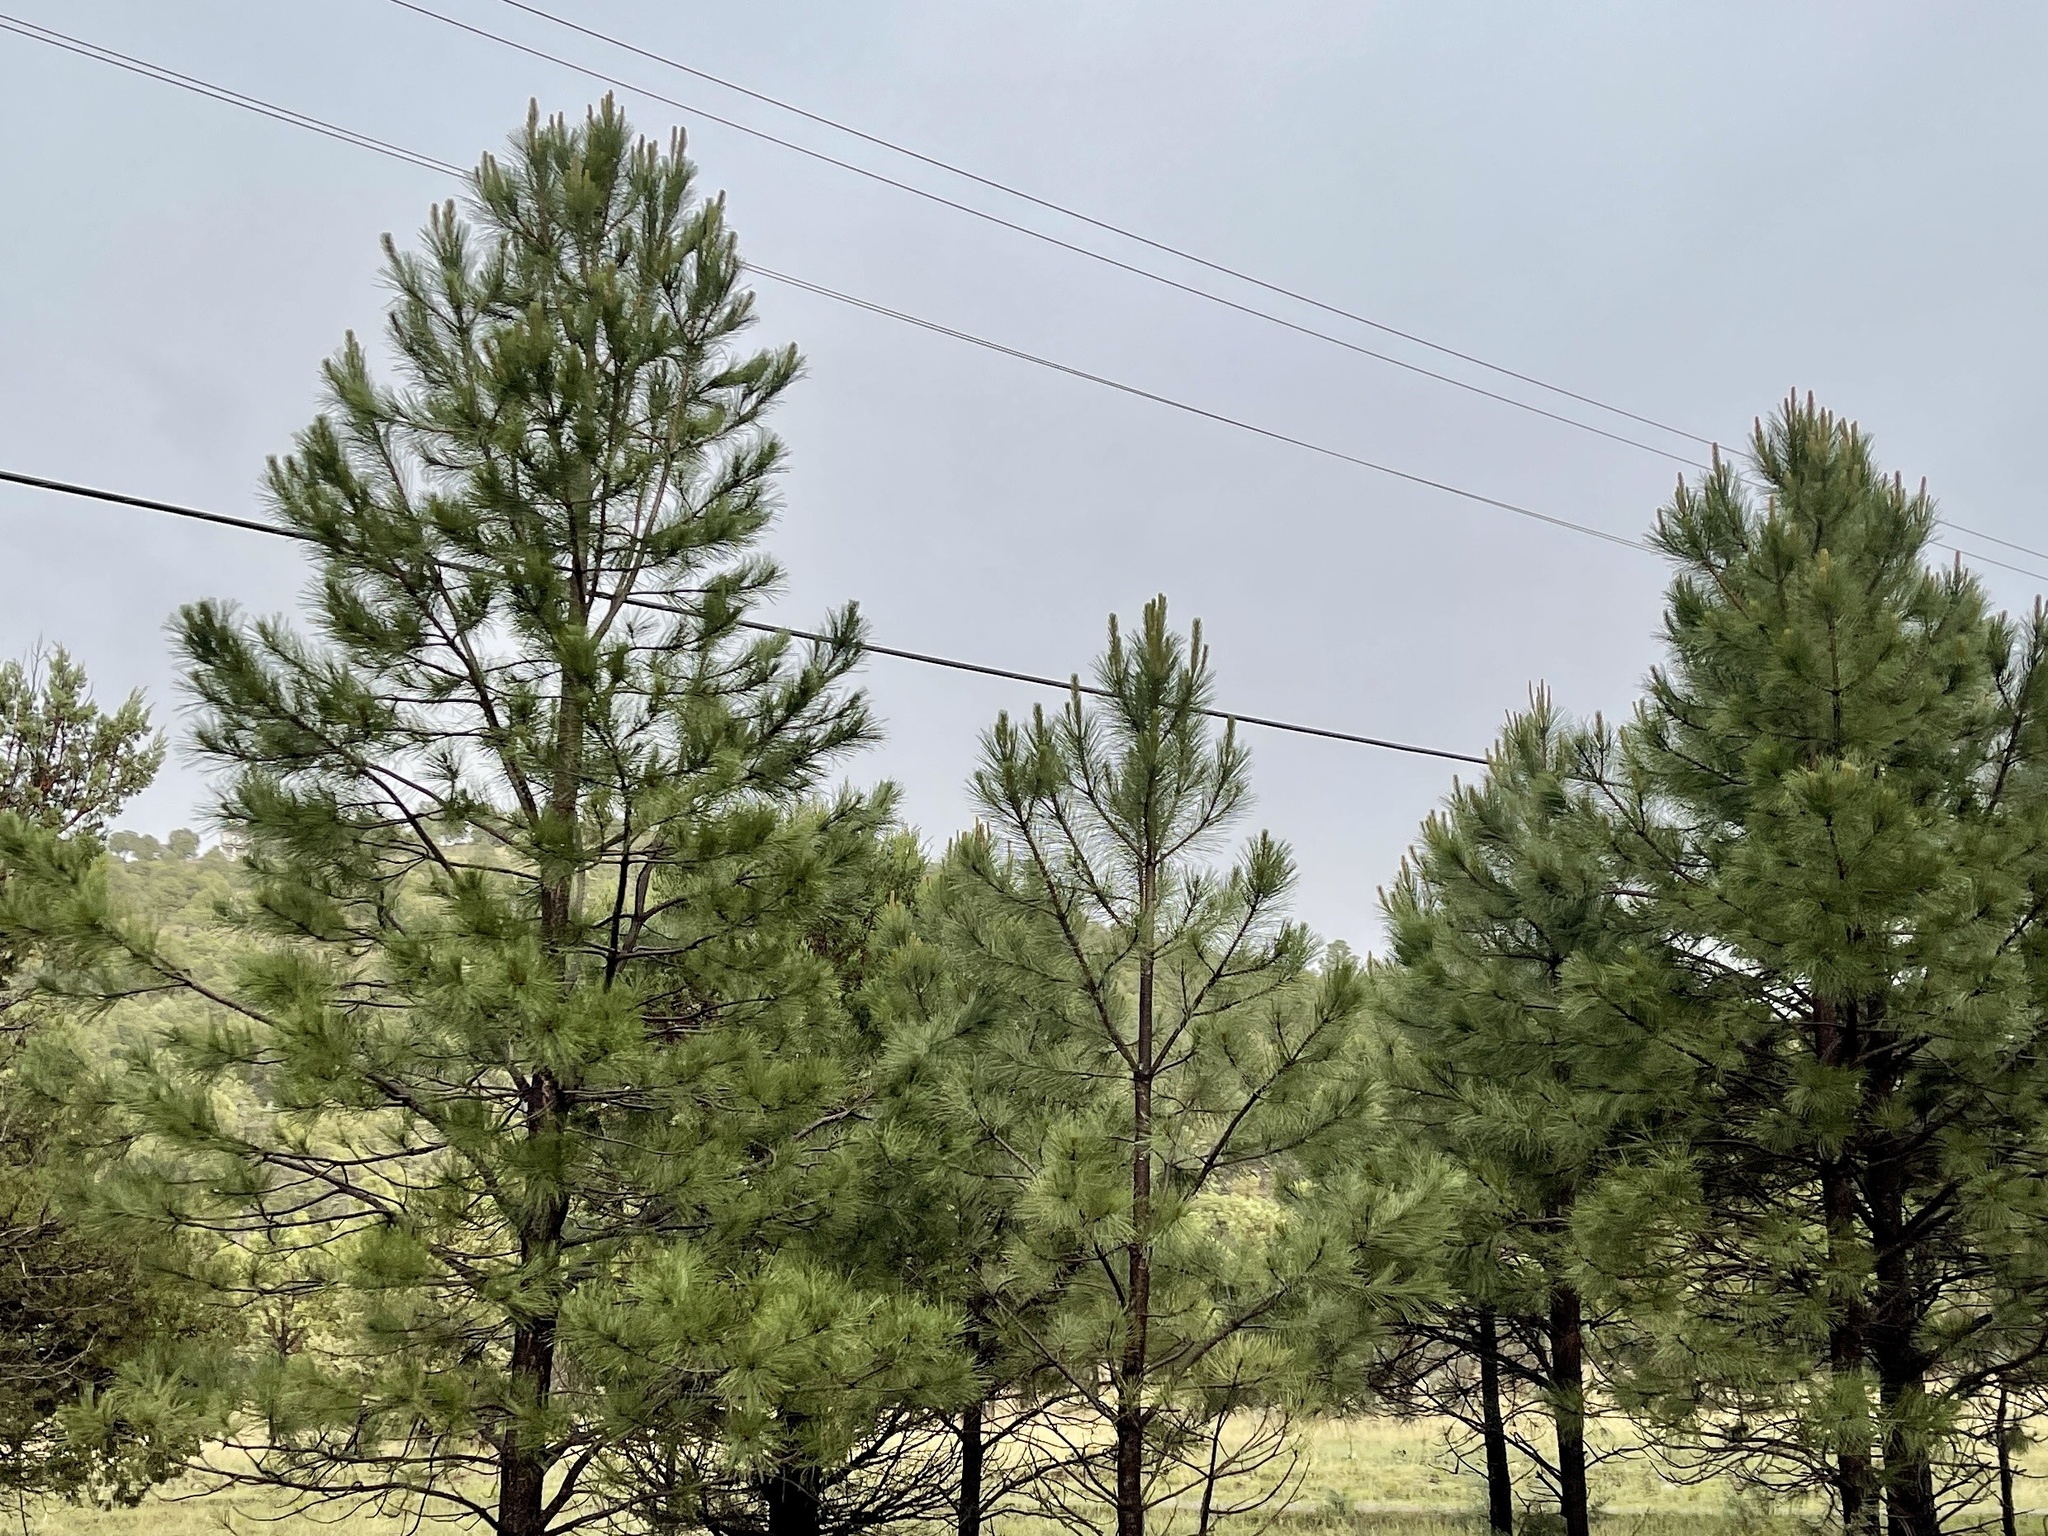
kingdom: Plantae
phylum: Tracheophyta
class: Pinopsida
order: Pinales
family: Pinaceae
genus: Pinus
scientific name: Pinus ponderosa
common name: Western yellow-pine
